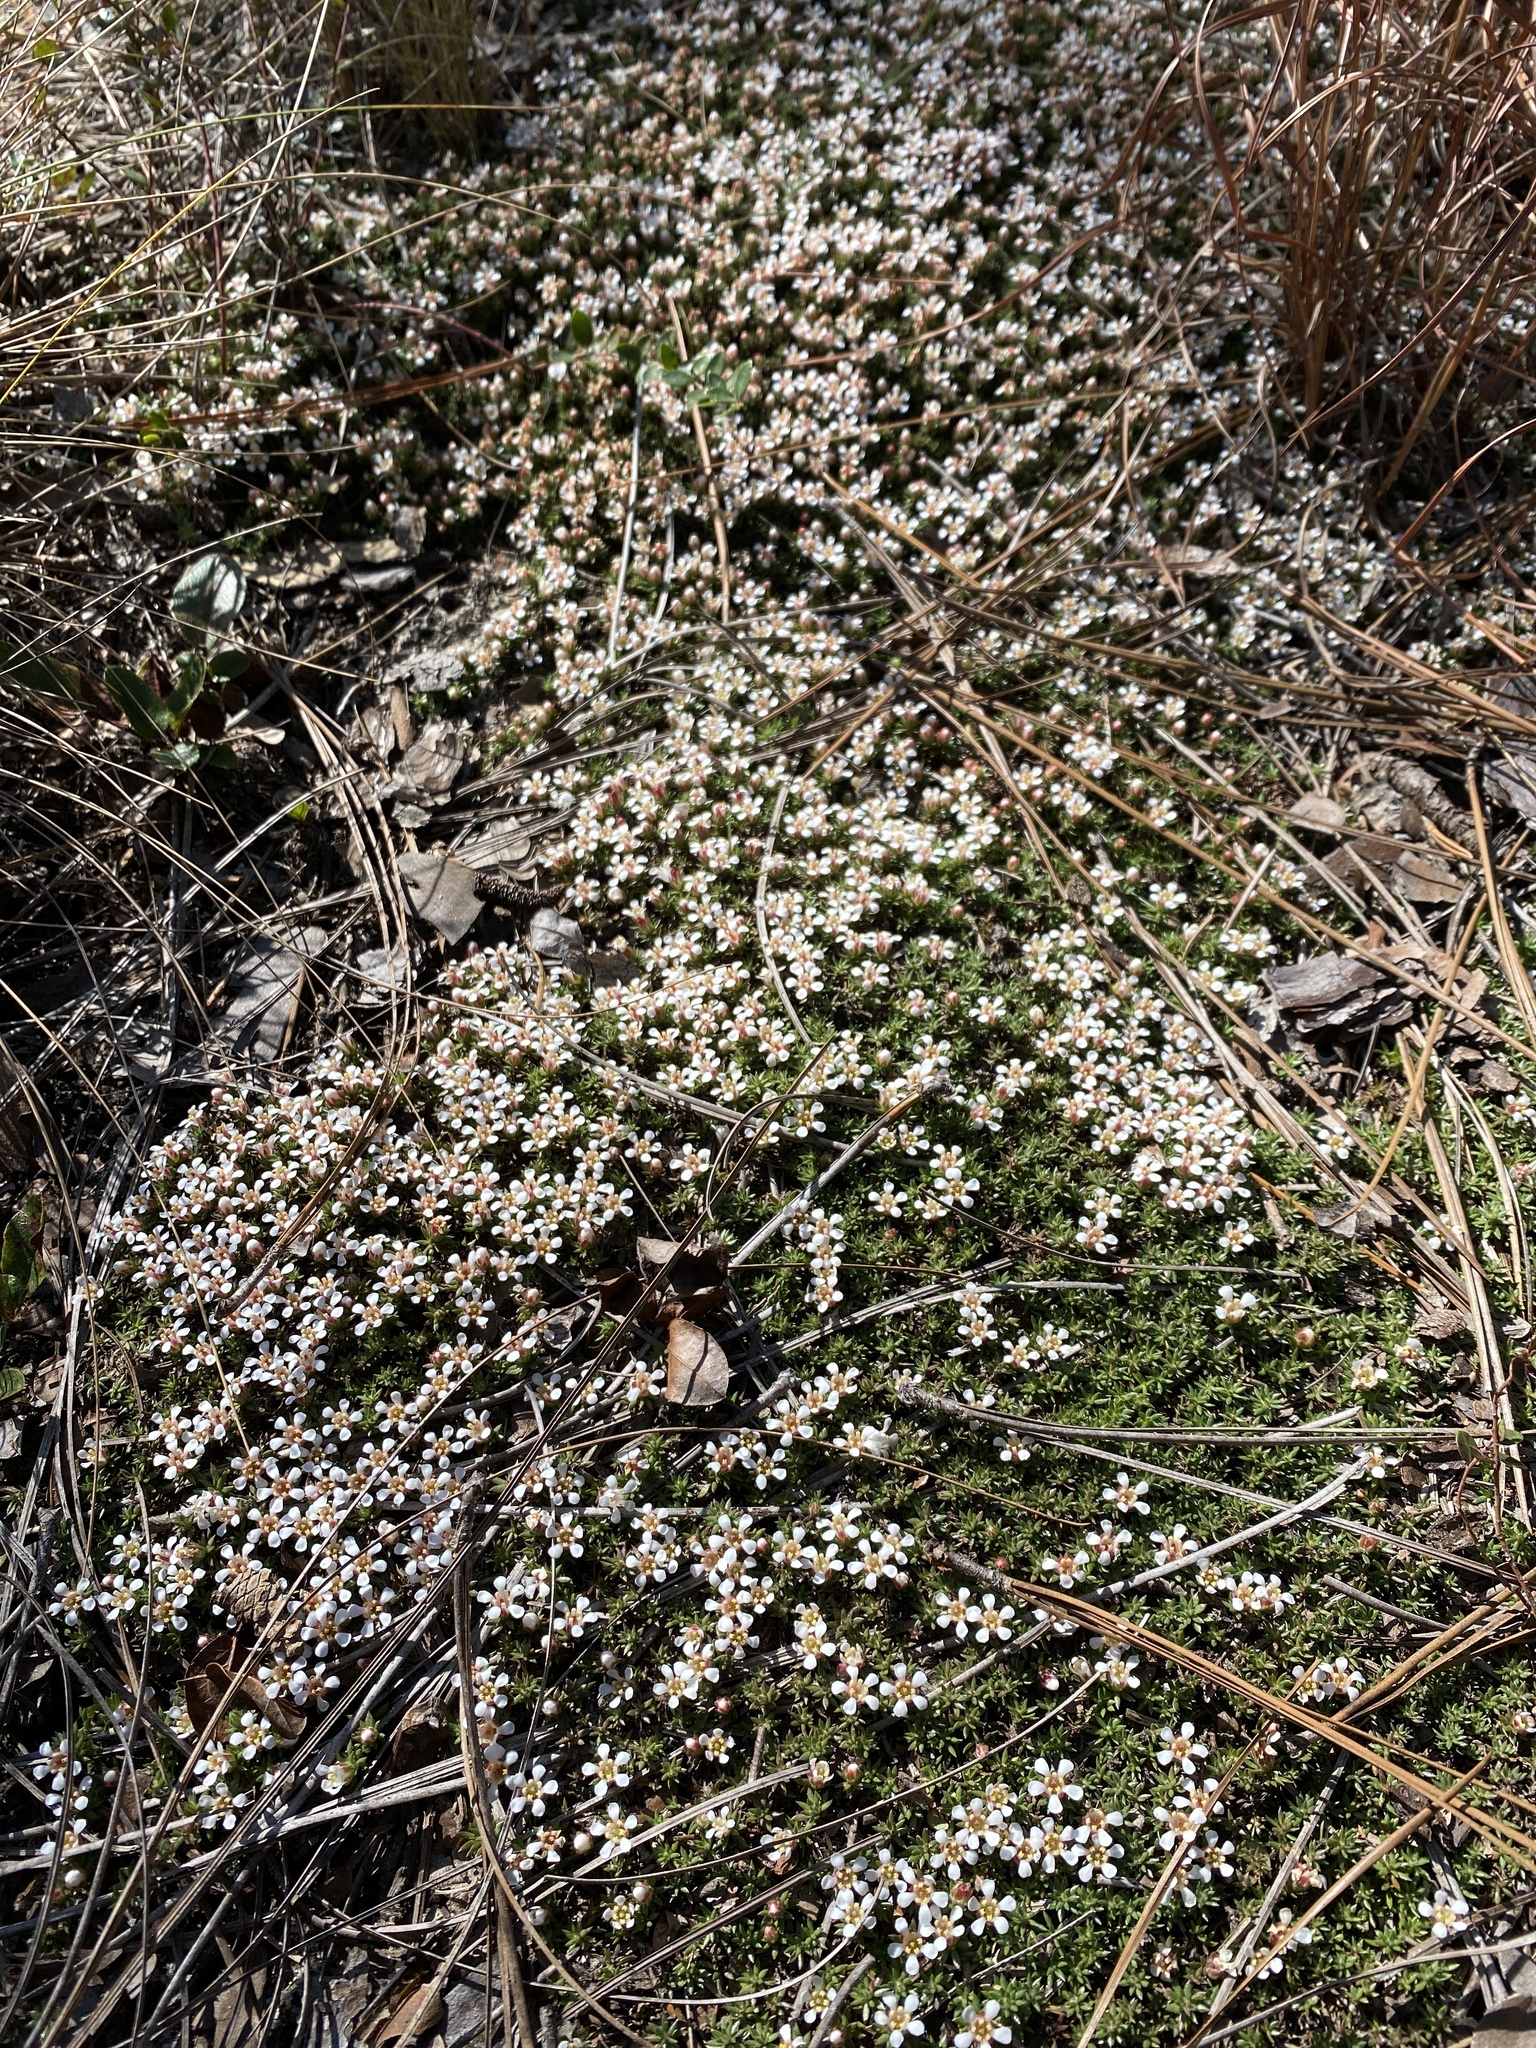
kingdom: Plantae
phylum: Tracheophyta
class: Magnoliopsida
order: Ericales
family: Diapensiaceae
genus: Pyxidanthera
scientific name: Pyxidanthera brevifolia
